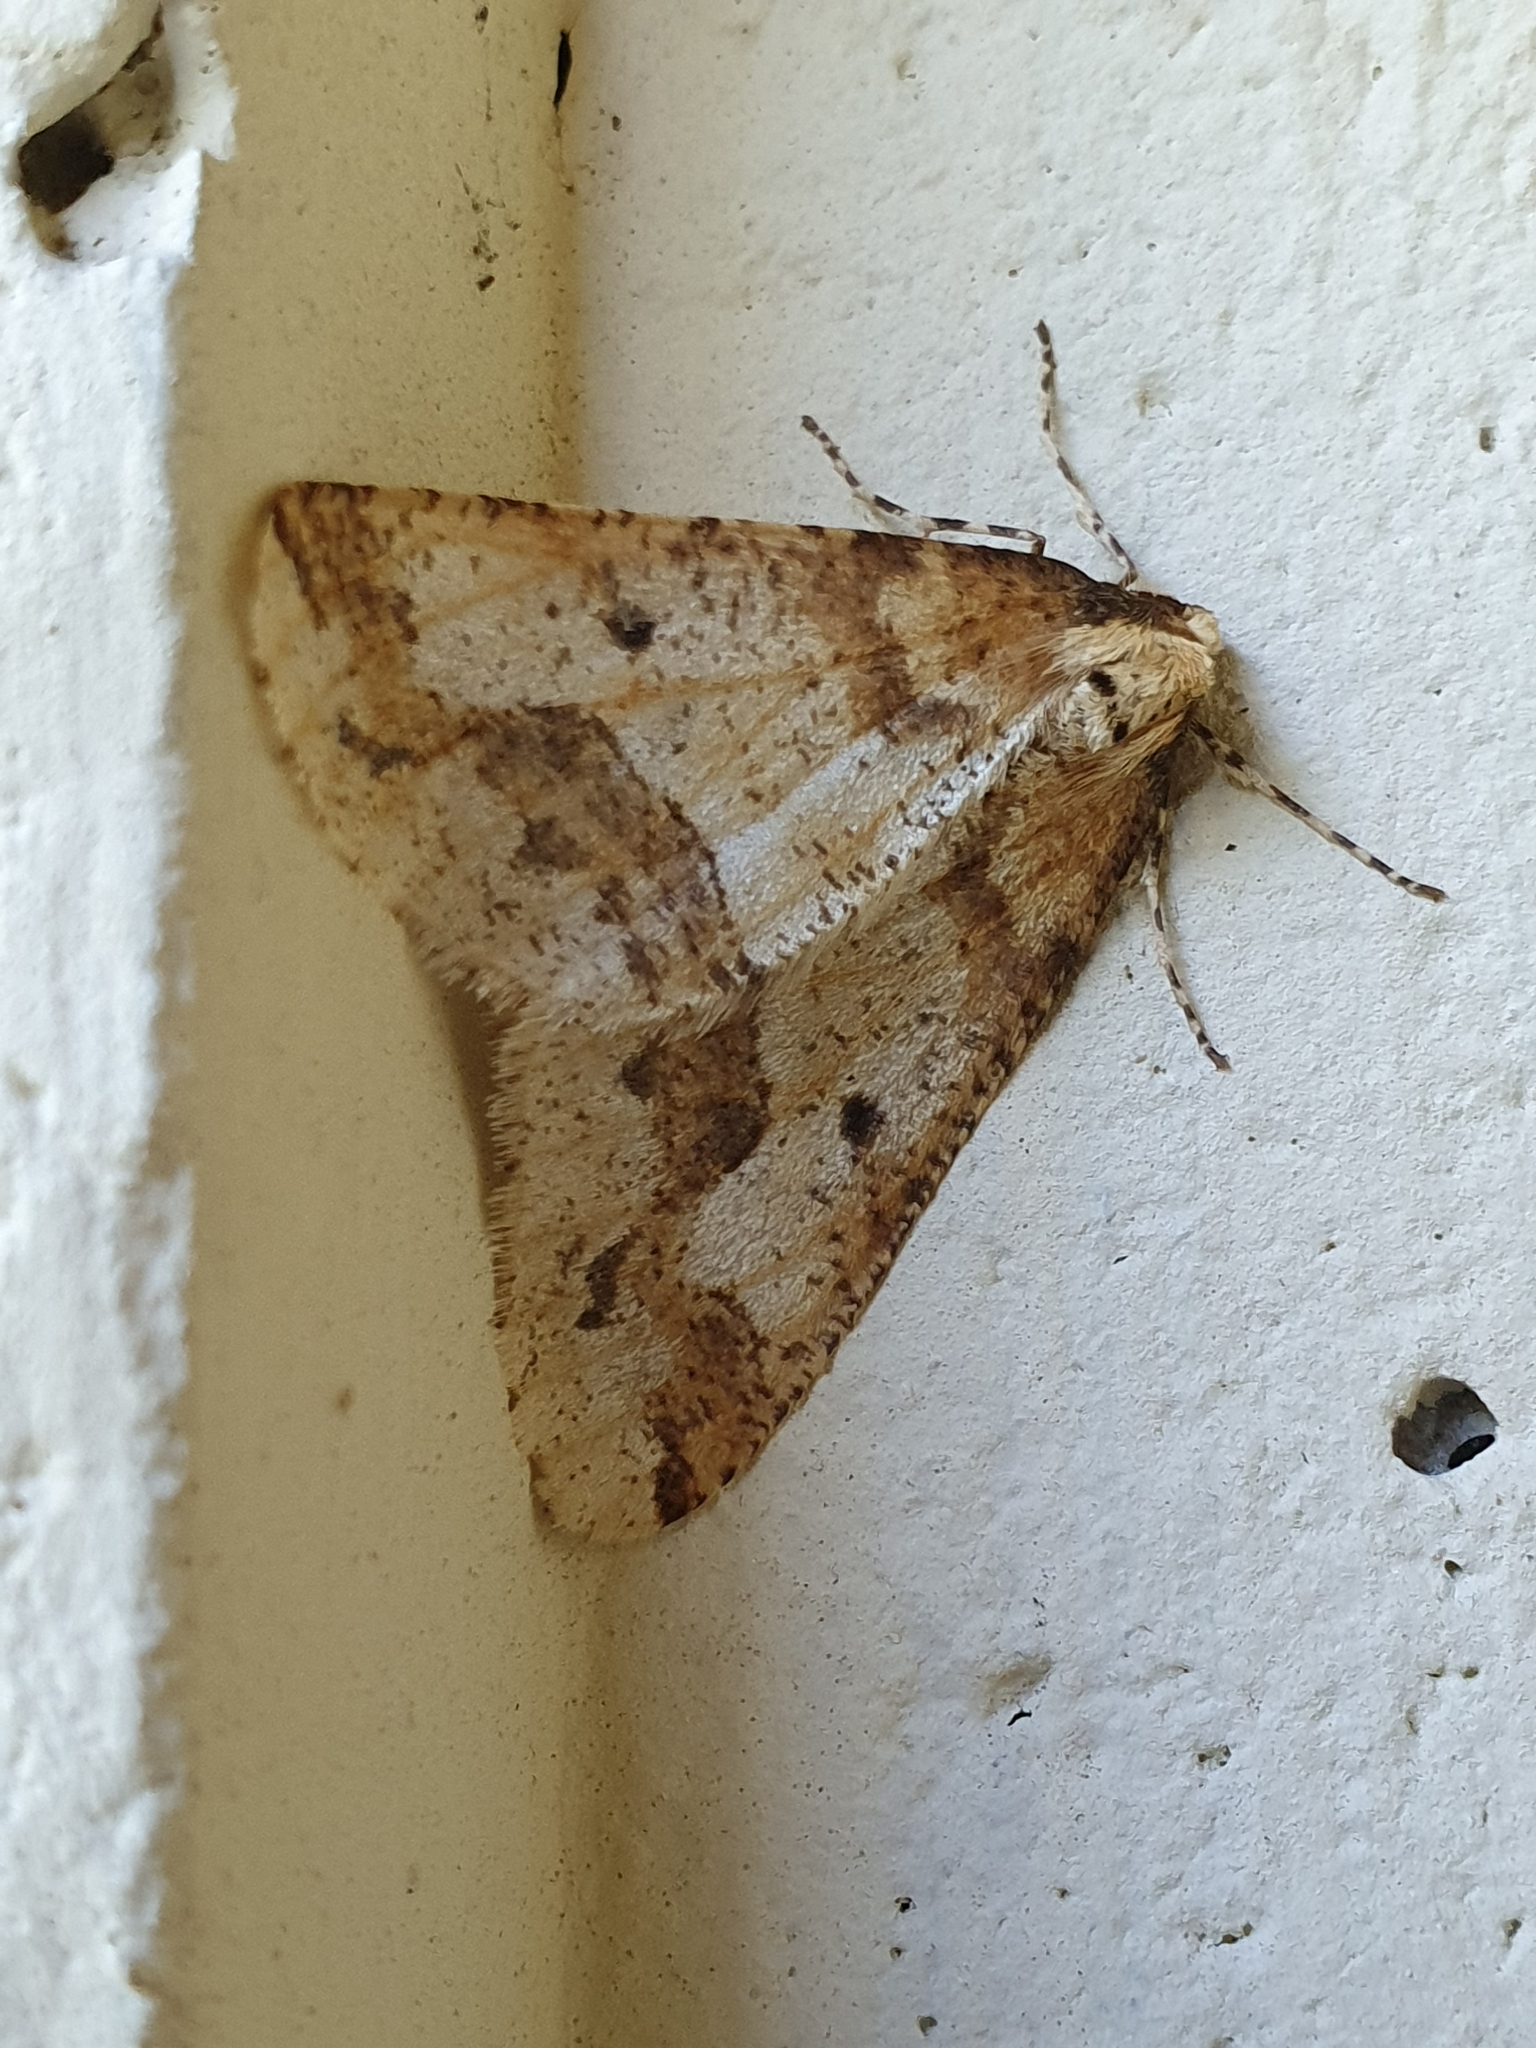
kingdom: Animalia
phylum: Arthropoda
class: Insecta
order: Lepidoptera
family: Geometridae
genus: Erannis
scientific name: Erannis defoliaria
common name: Mottled umber
